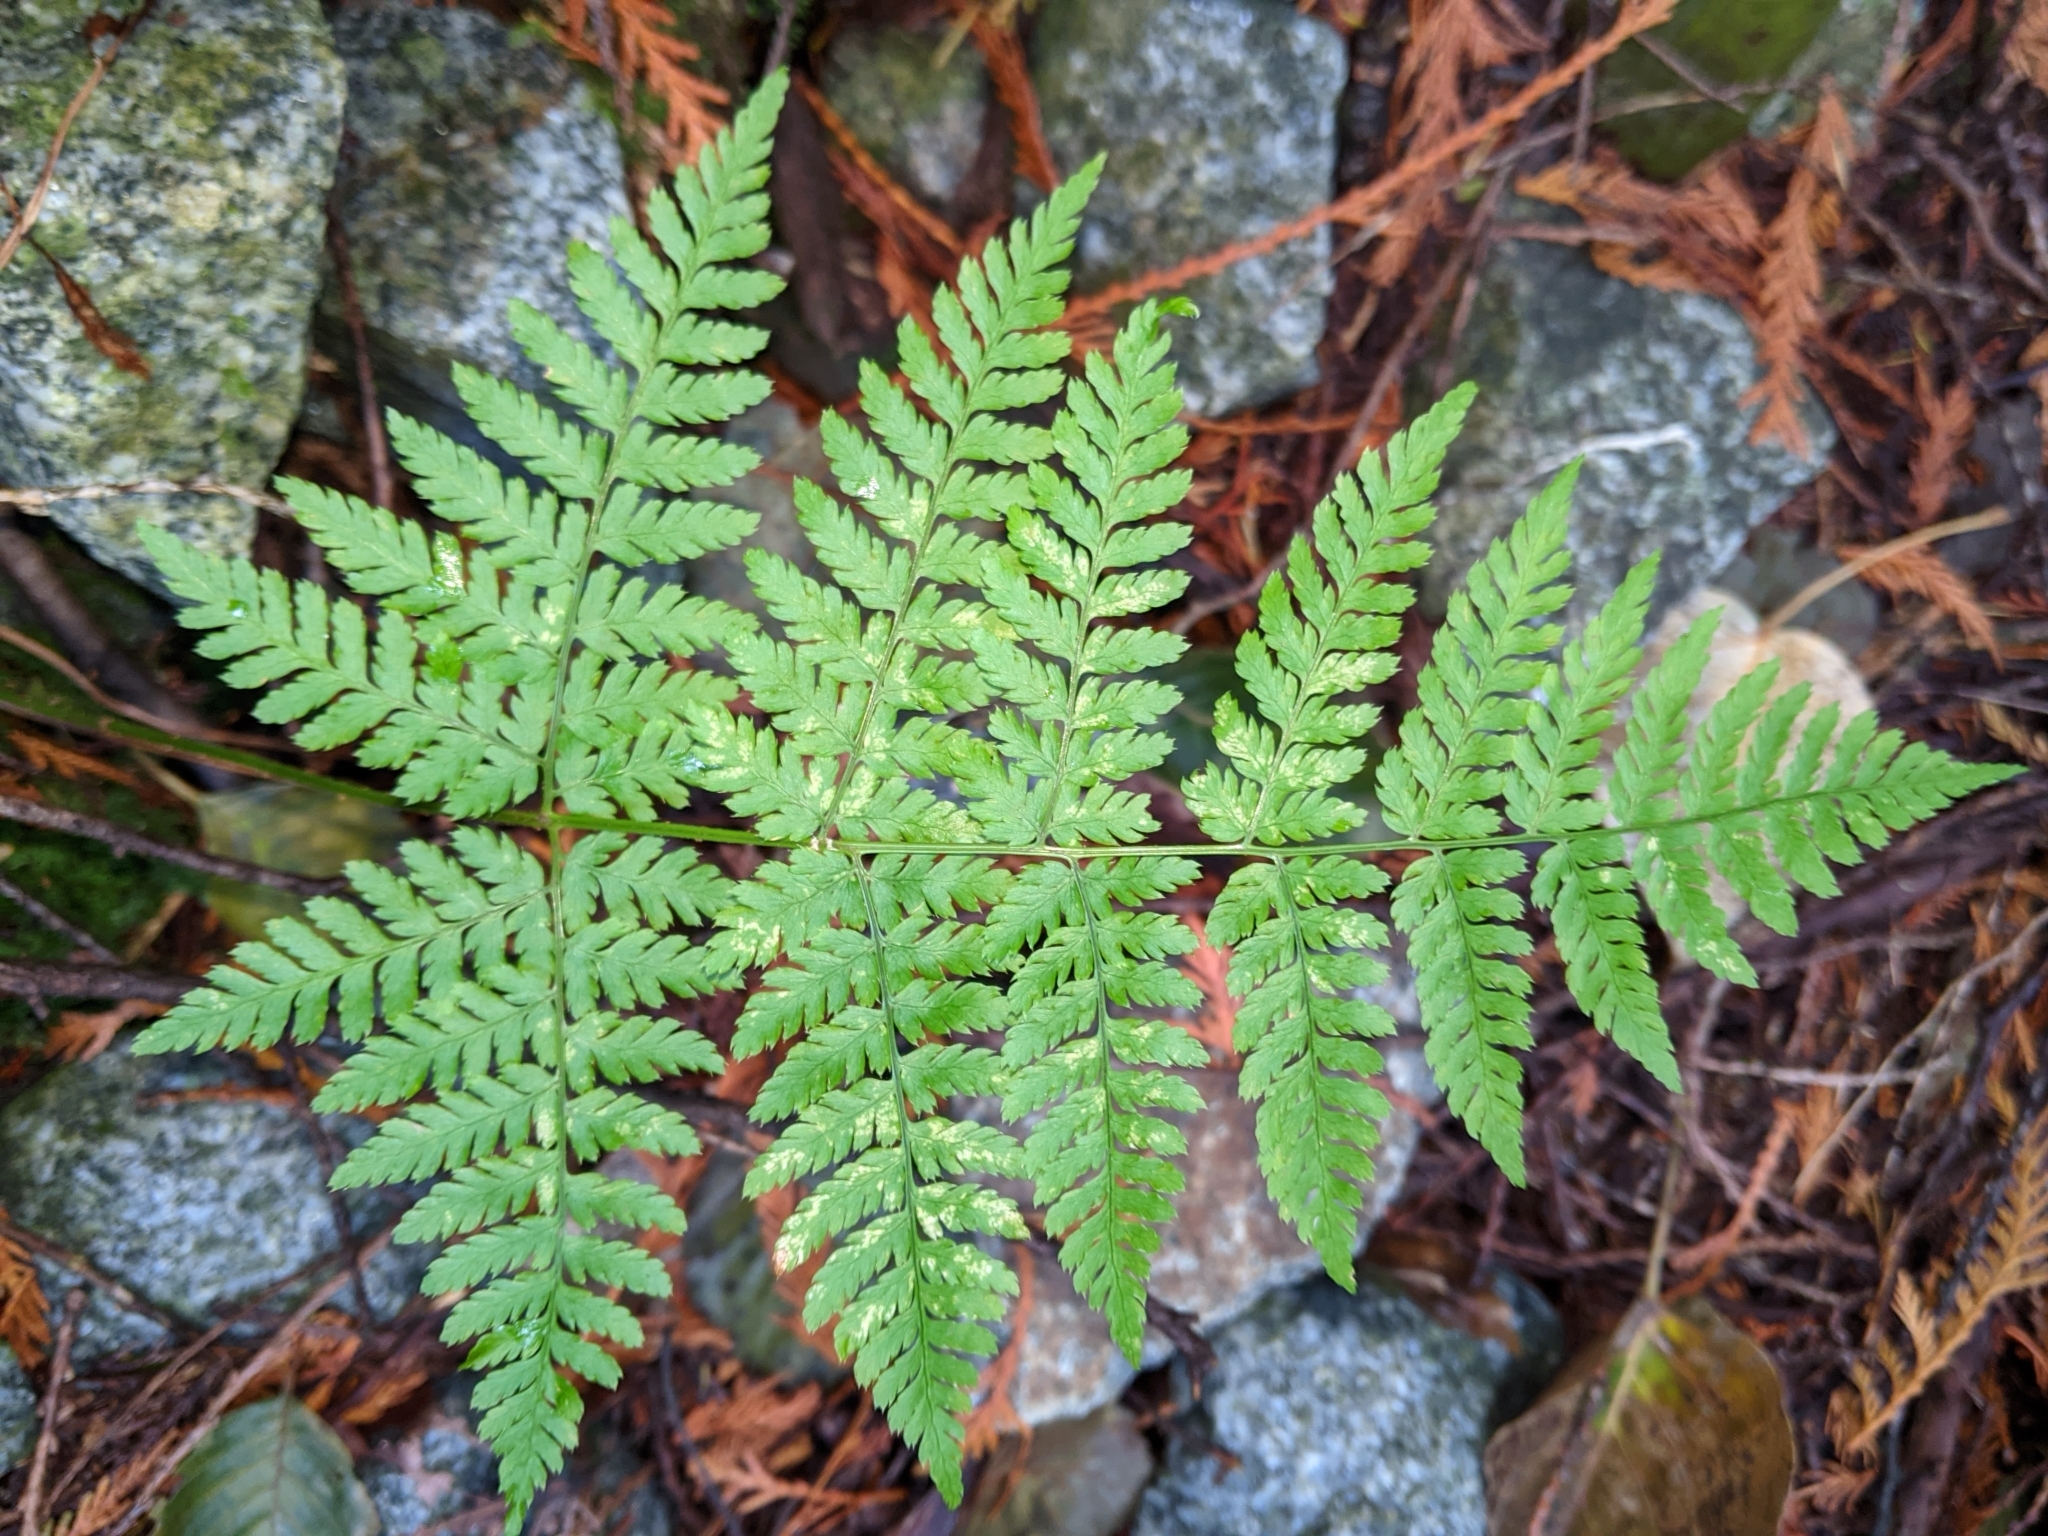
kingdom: Plantae
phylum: Tracheophyta
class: Polypodiopsida
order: Polypodiales
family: Dryopteridaceae
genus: Dryopteris
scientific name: Dryopteris expansa
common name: Northern buckler fern
